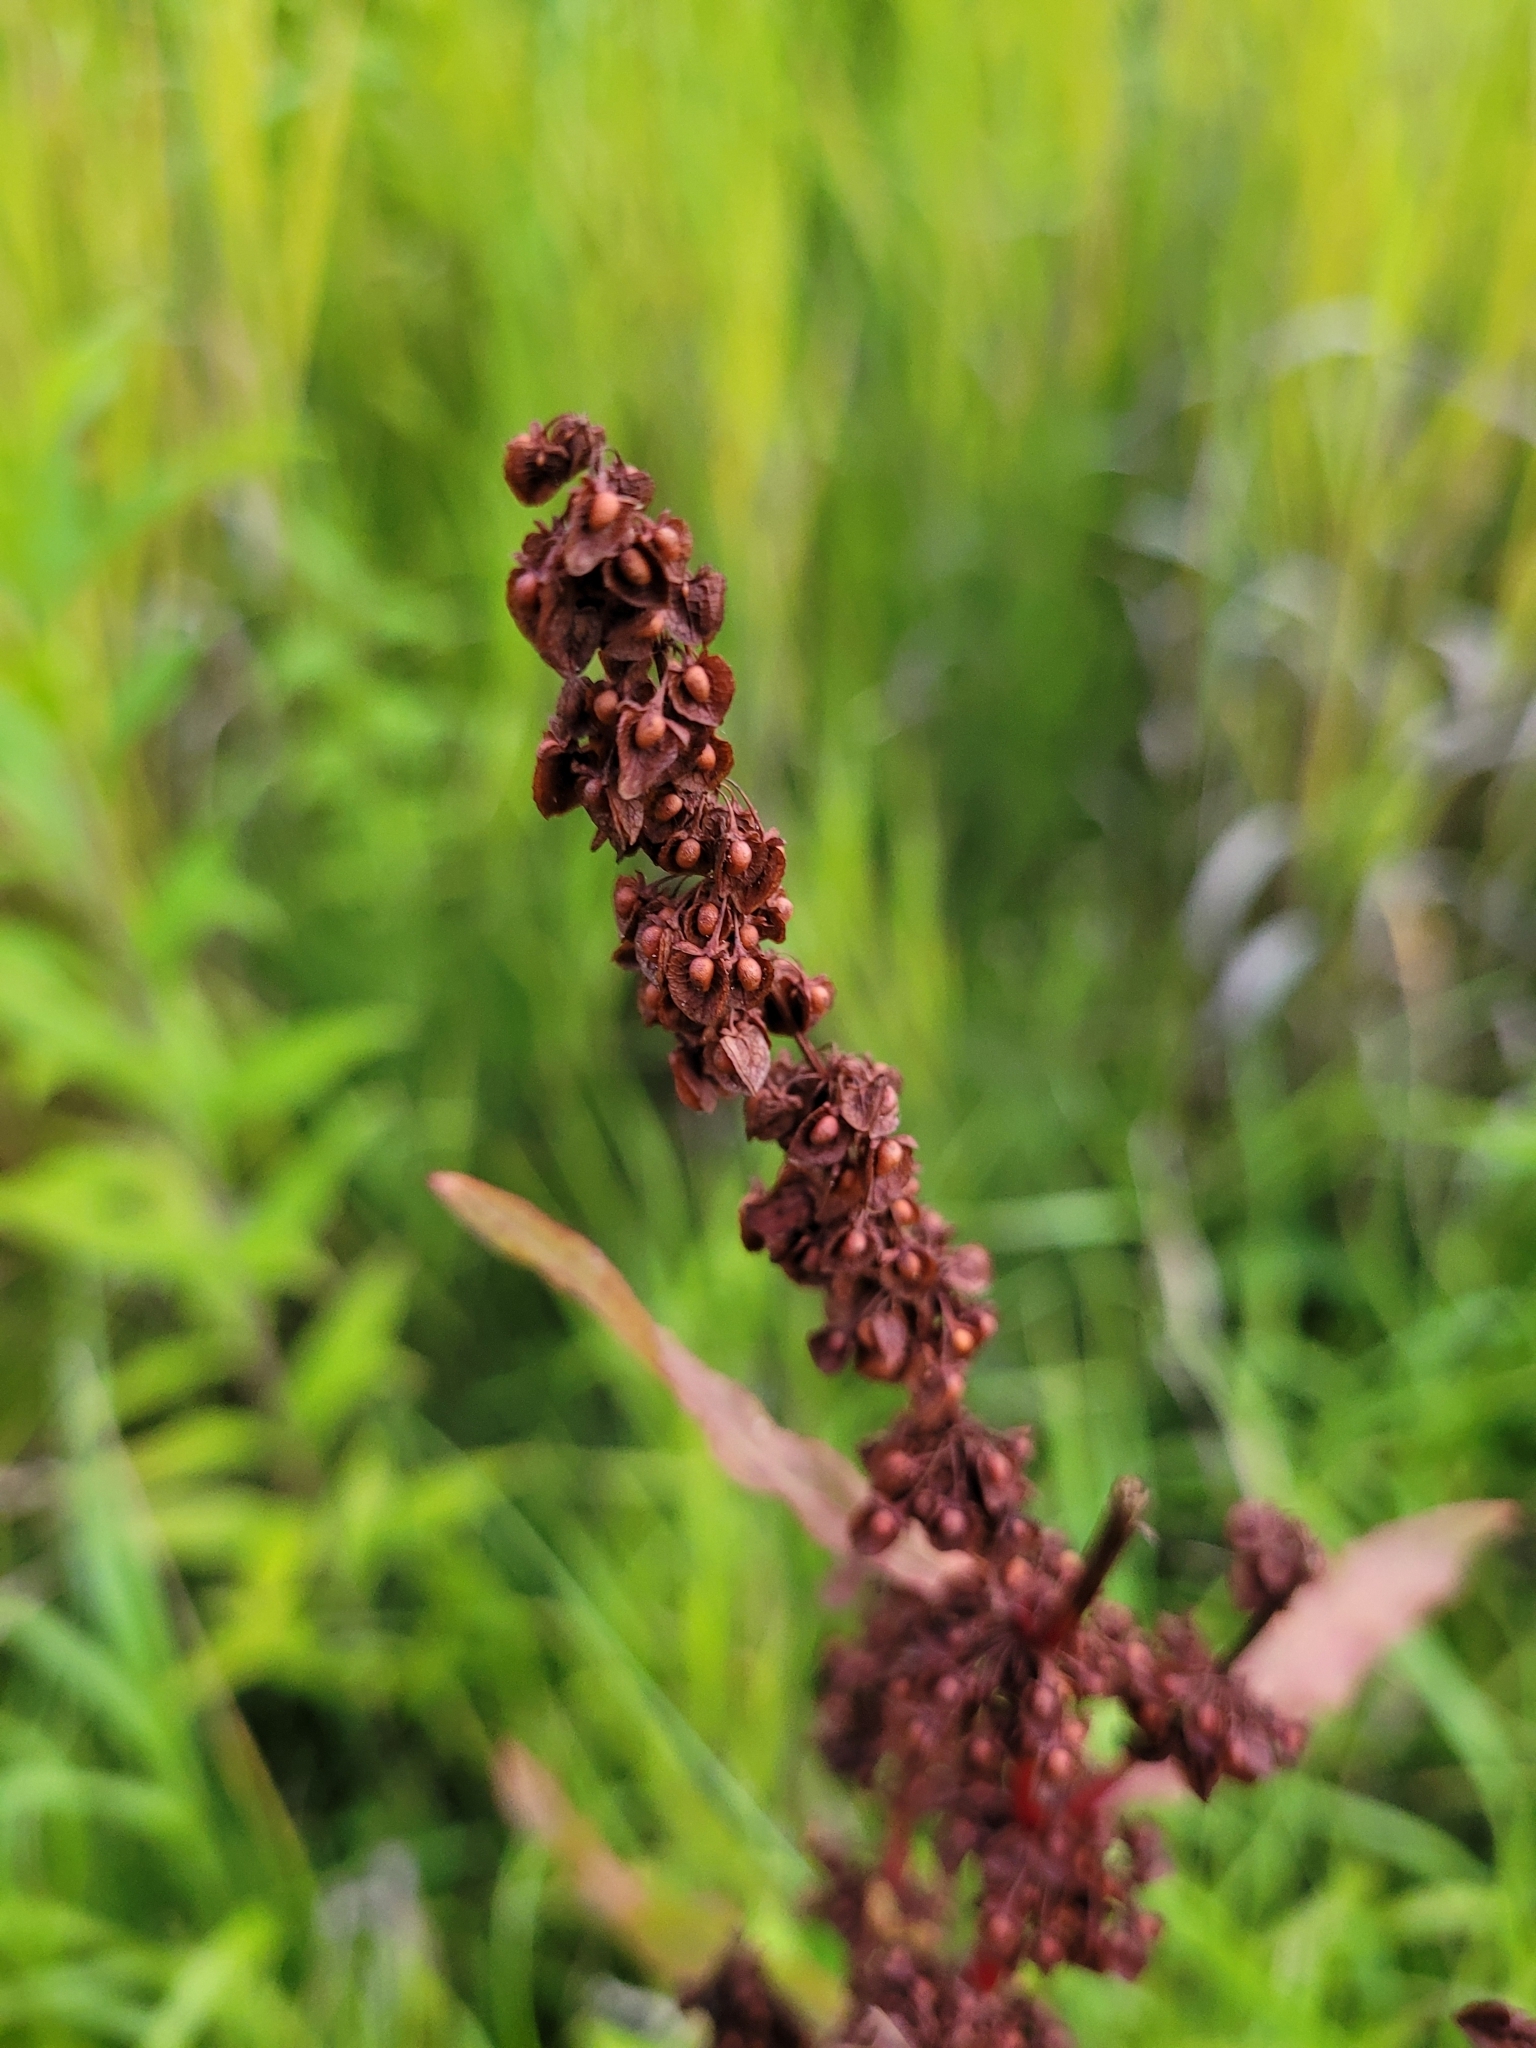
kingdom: Plantae
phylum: Tracheophyta
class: Magnoliopsida
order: Caryophyllales
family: Polygonaceae
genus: Rumex
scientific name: Rumex crispus
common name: Curled dock
